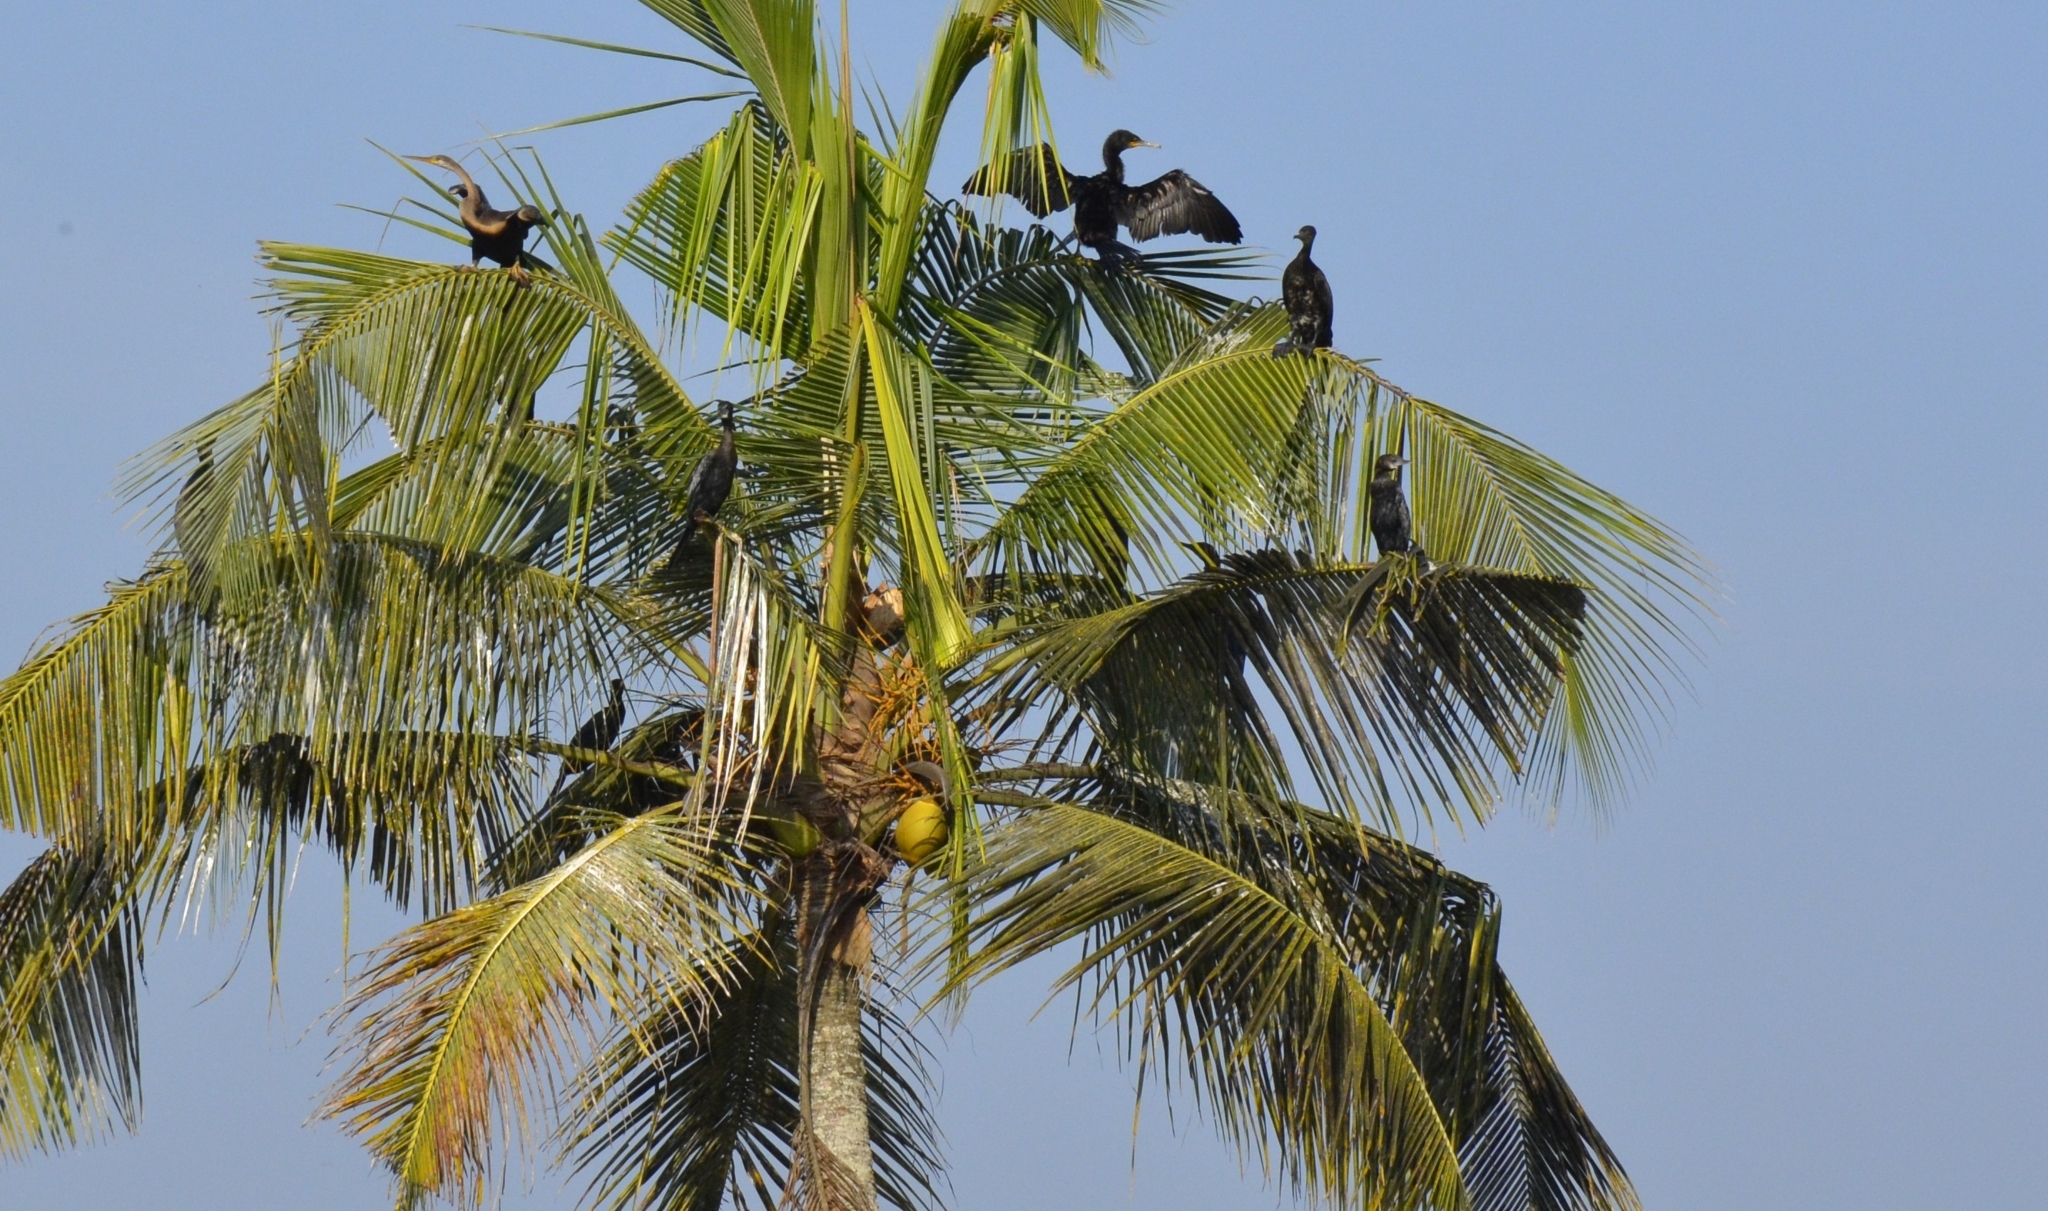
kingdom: Animalia
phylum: Chordata
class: Aves
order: Suliformes
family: Phalacrocoracidae
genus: Microcarbo
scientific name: Microcarbo niger
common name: Little cormorant
